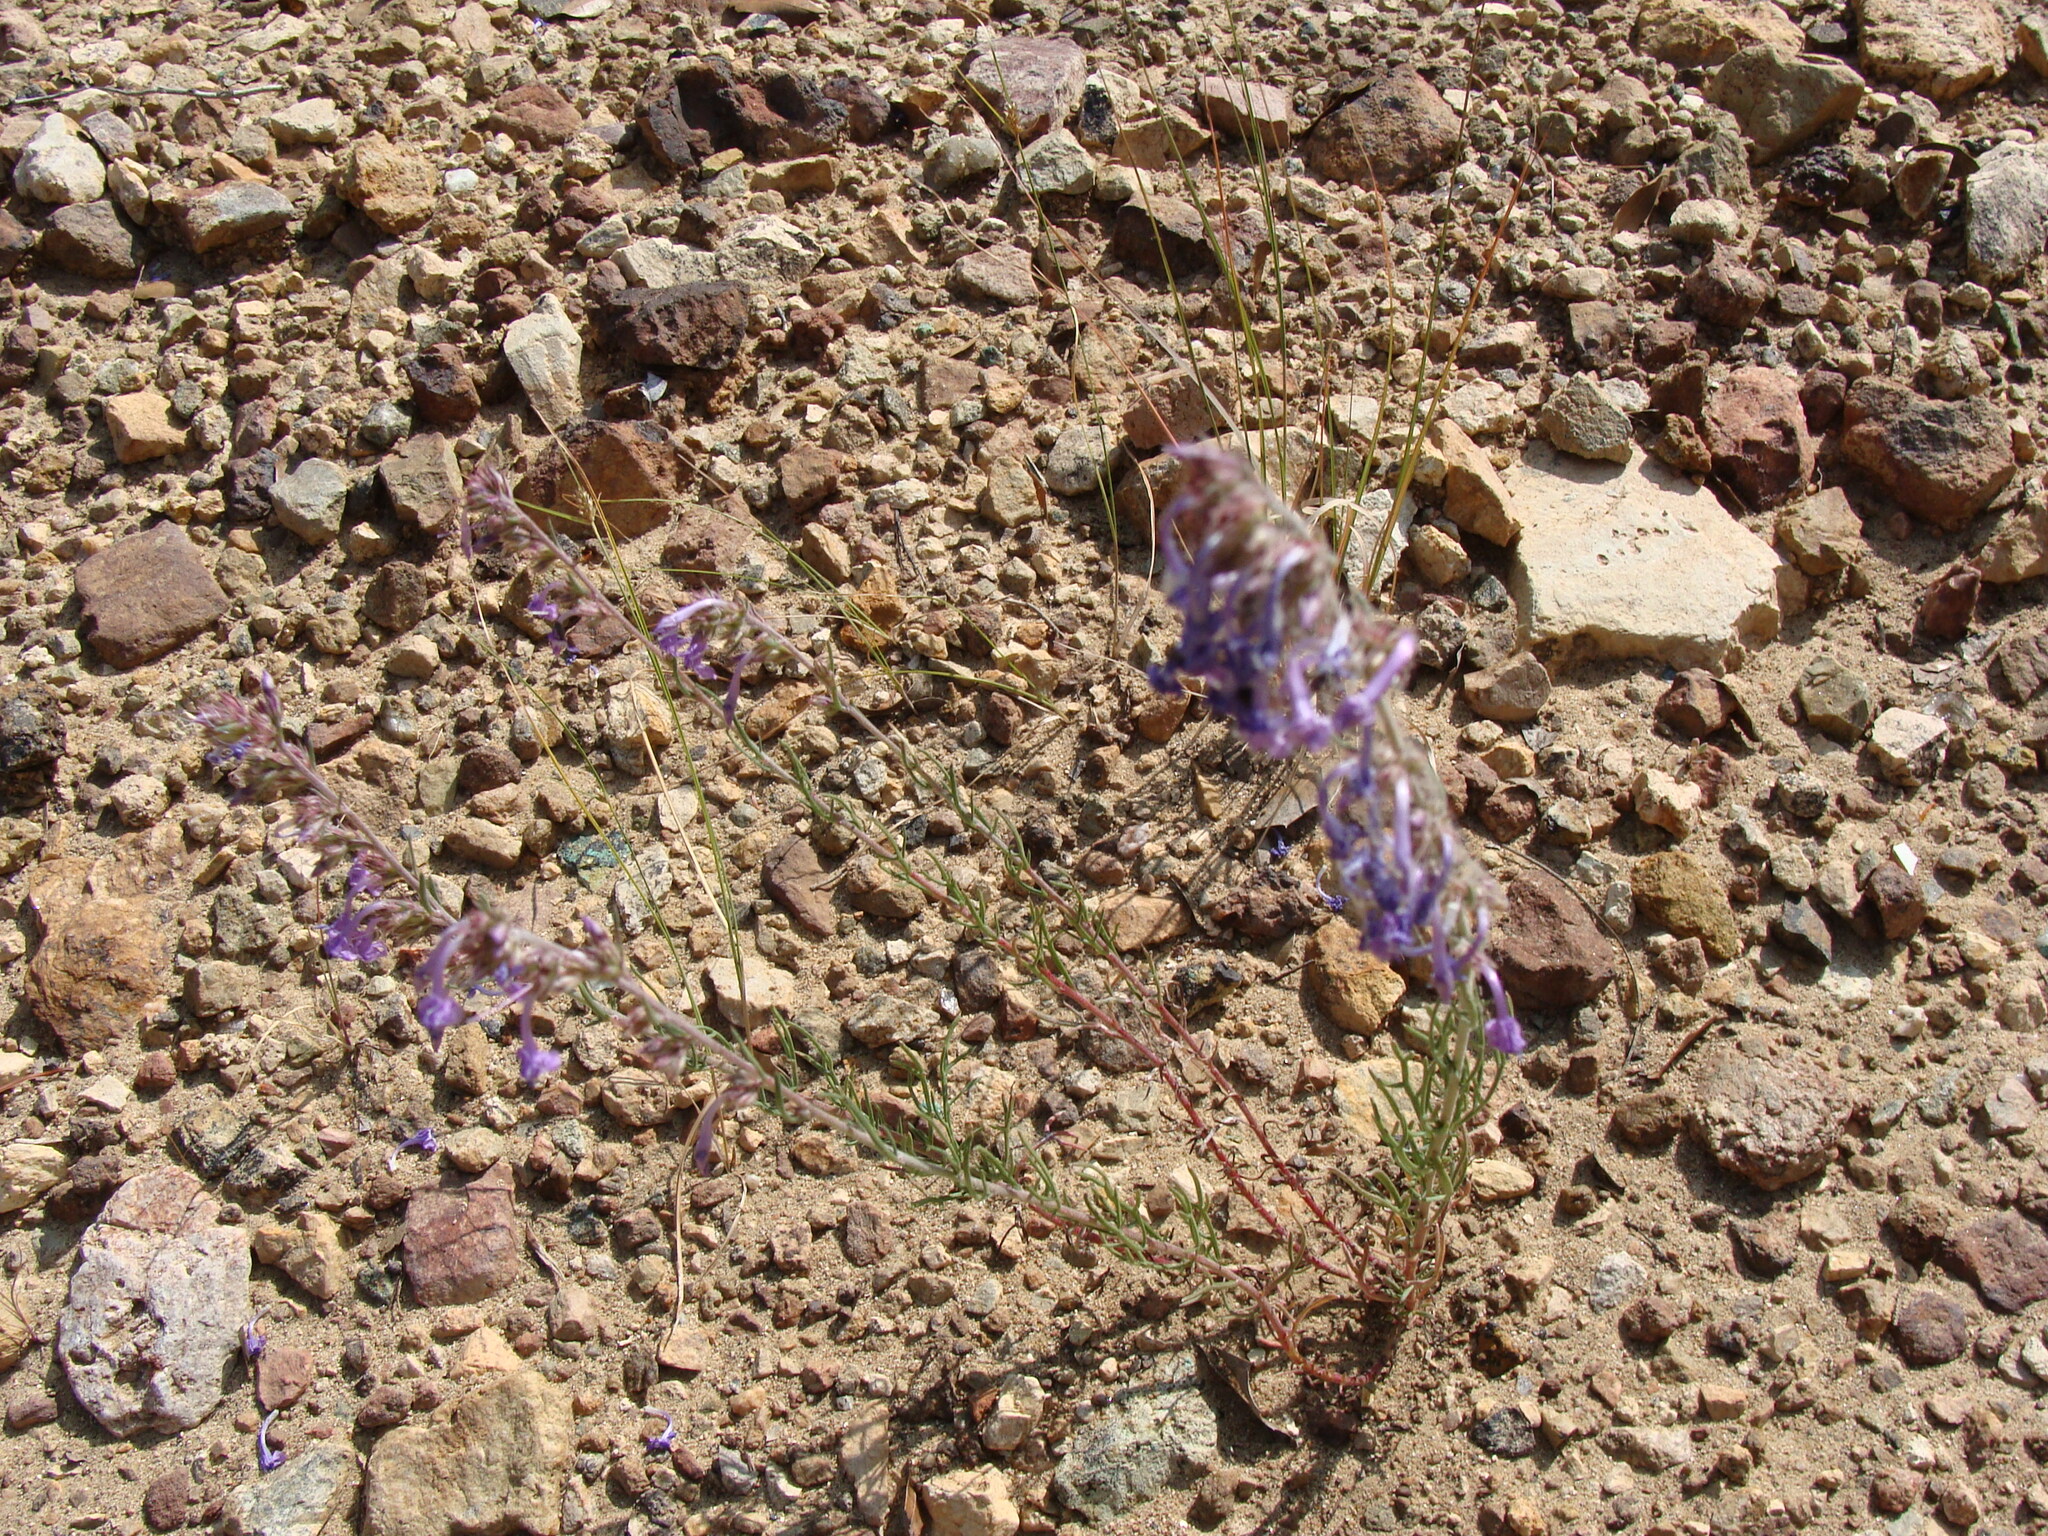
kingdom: Plantae
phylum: Tracheophyta
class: Magnoliopsida
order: Ericales
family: Polemoniaceae
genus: Ipomopsis
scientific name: Ipomopsis thurberi
